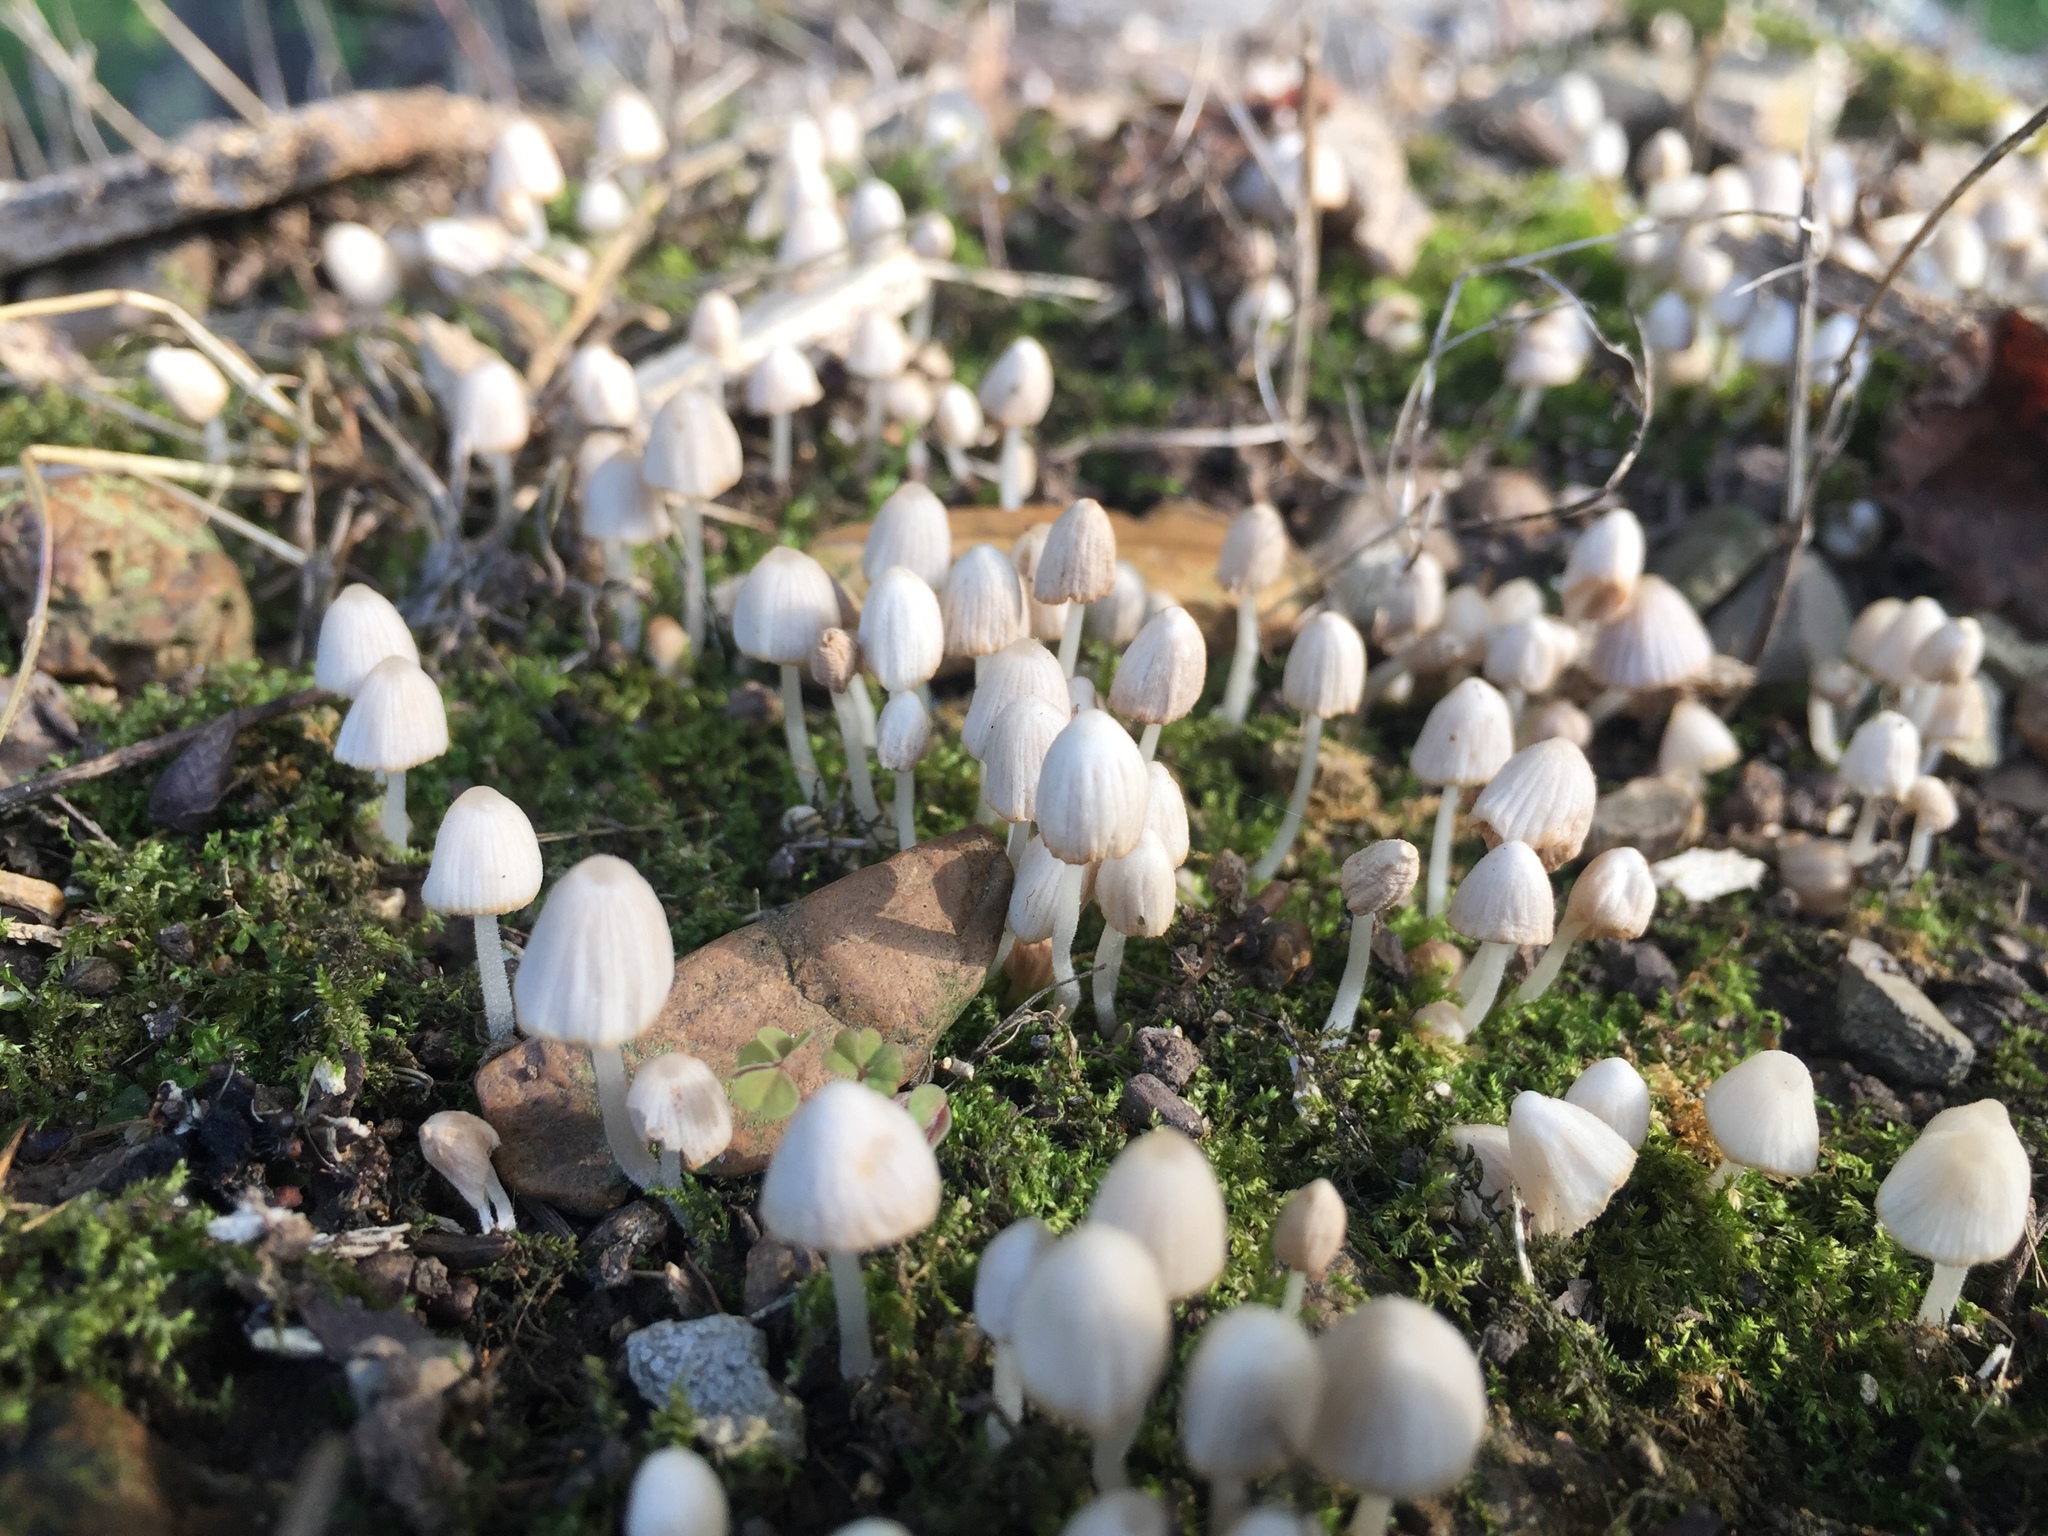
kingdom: Fungi
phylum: Basidiomycota
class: Agaricomycetes
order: Agaricales
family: Psathyrellaceae
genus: Coprinellus
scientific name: Coprinellus disseminatus
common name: Fairies' bonnets
